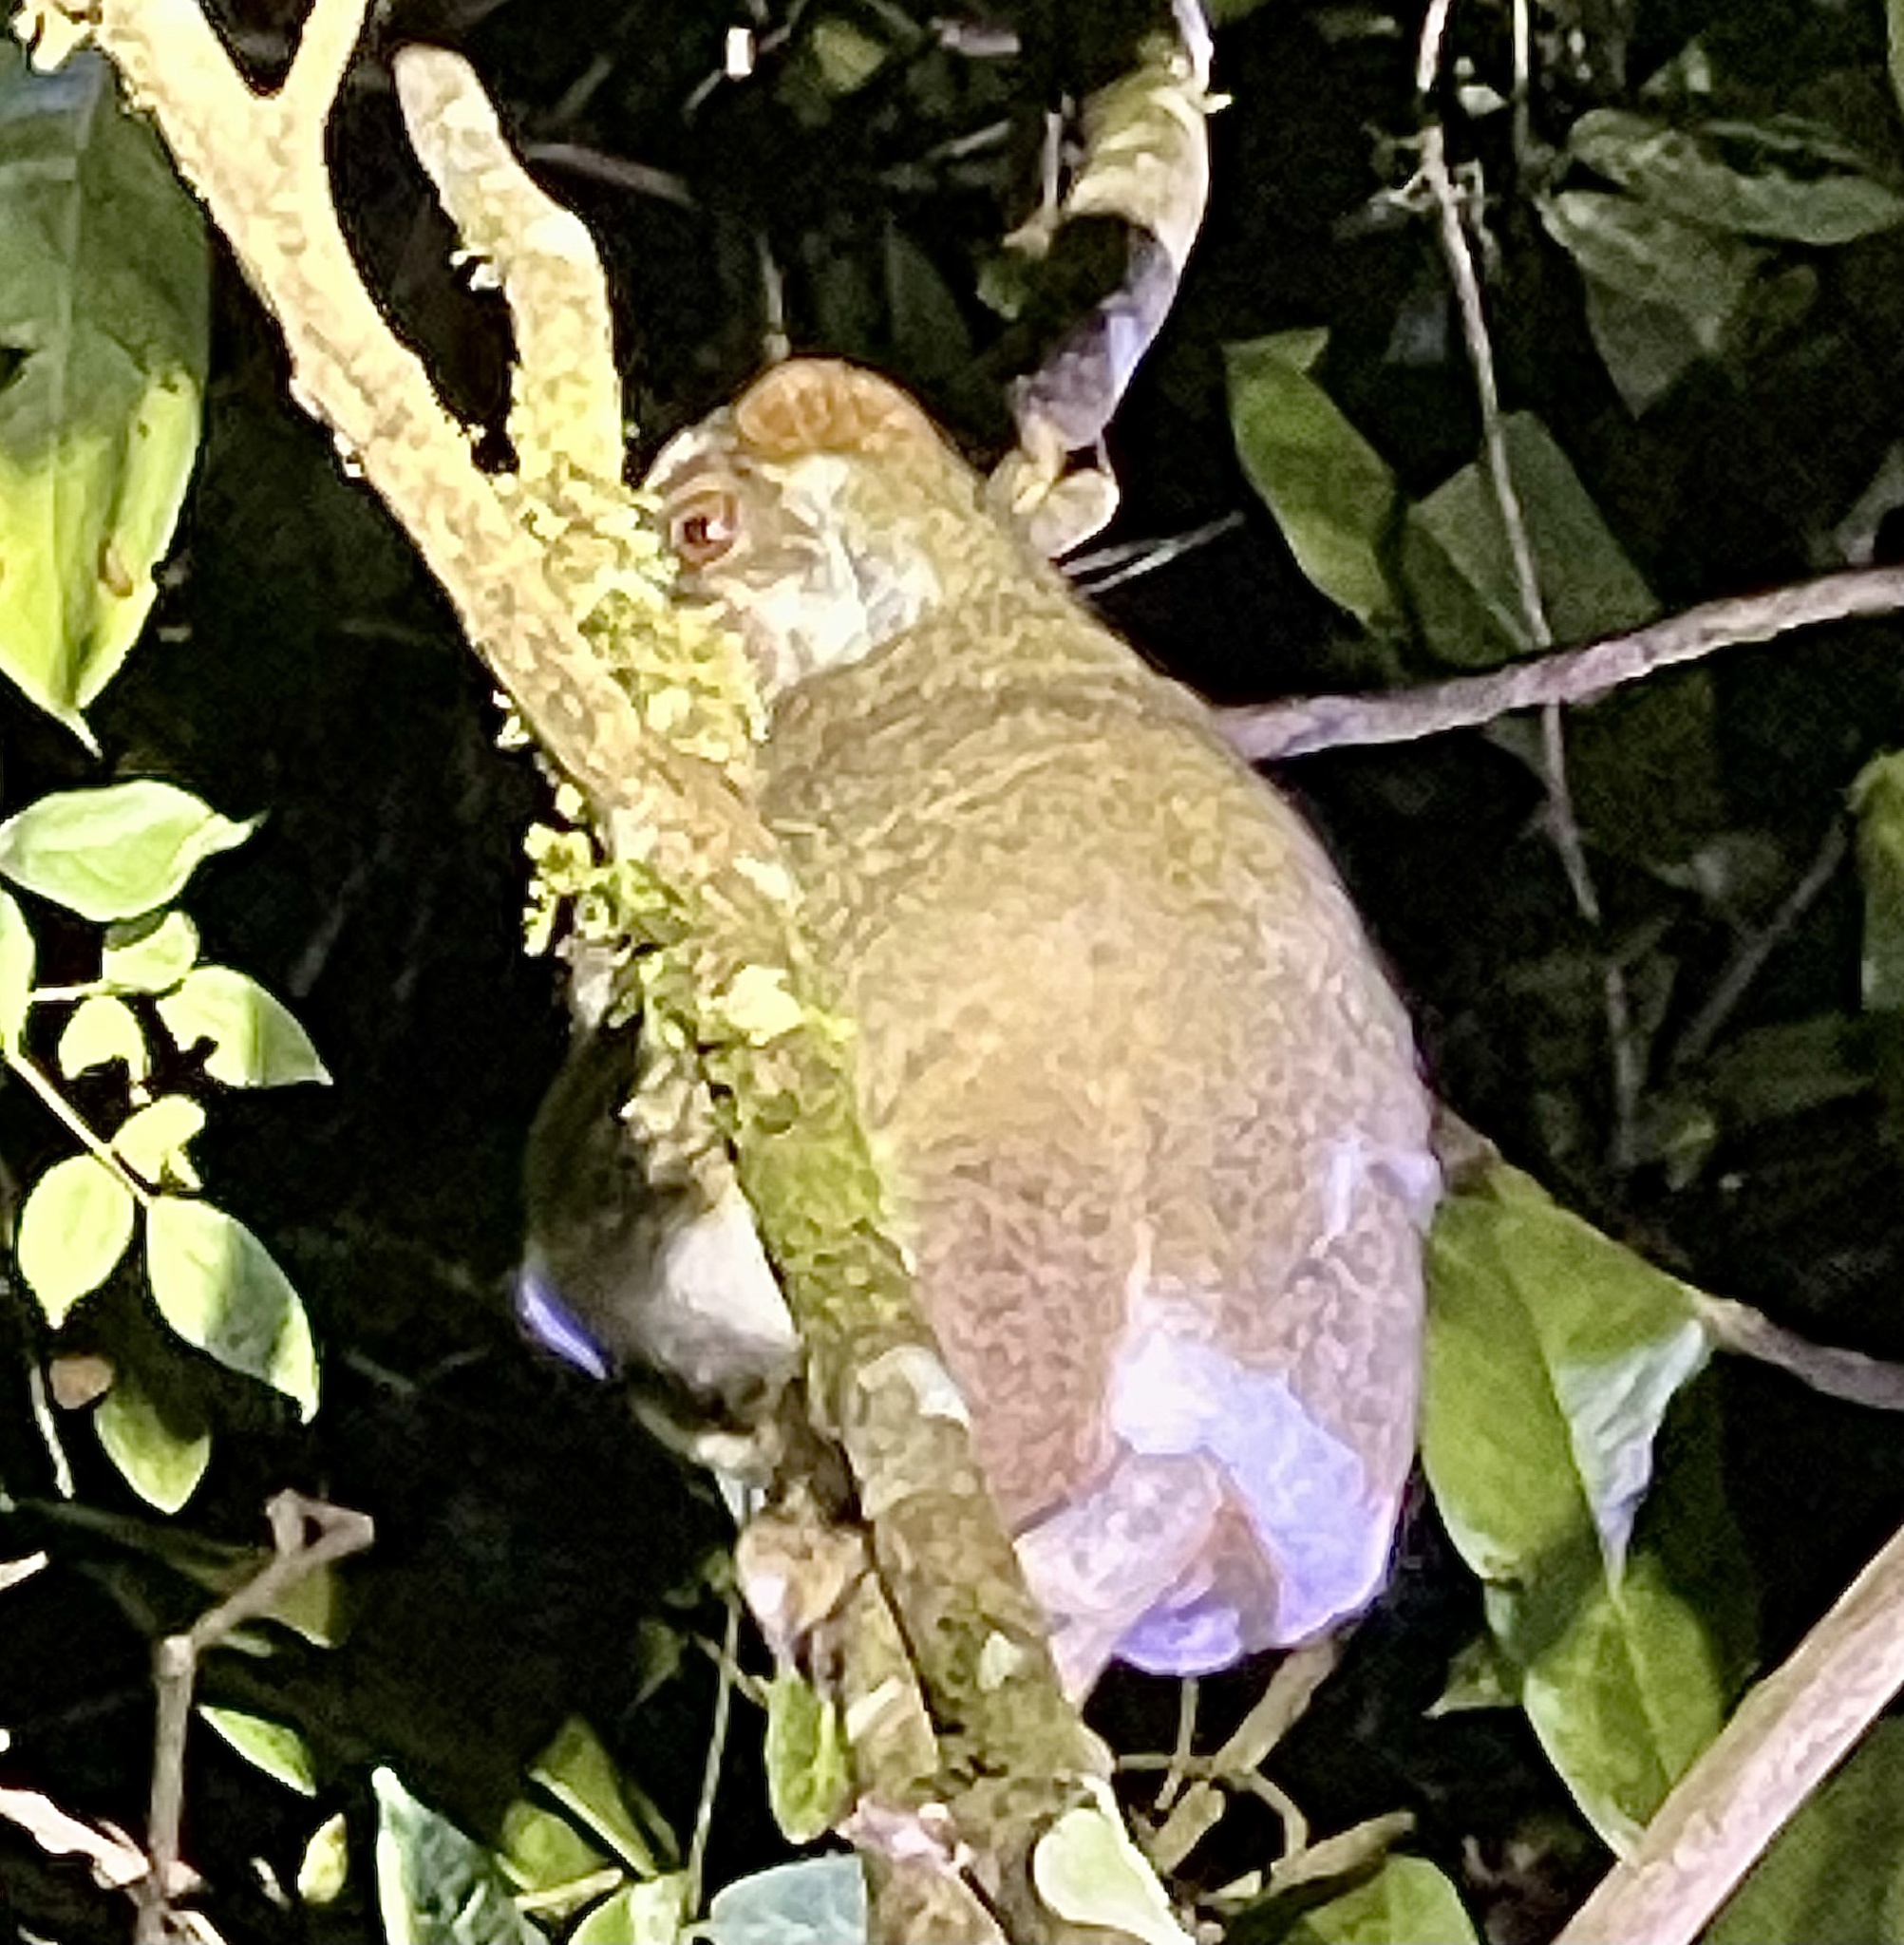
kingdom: Animalia
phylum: Chordata
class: Mammalia
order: Primates
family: Indriidae
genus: Avahi
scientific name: Avahi laniger
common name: Eastern woolly lemur
